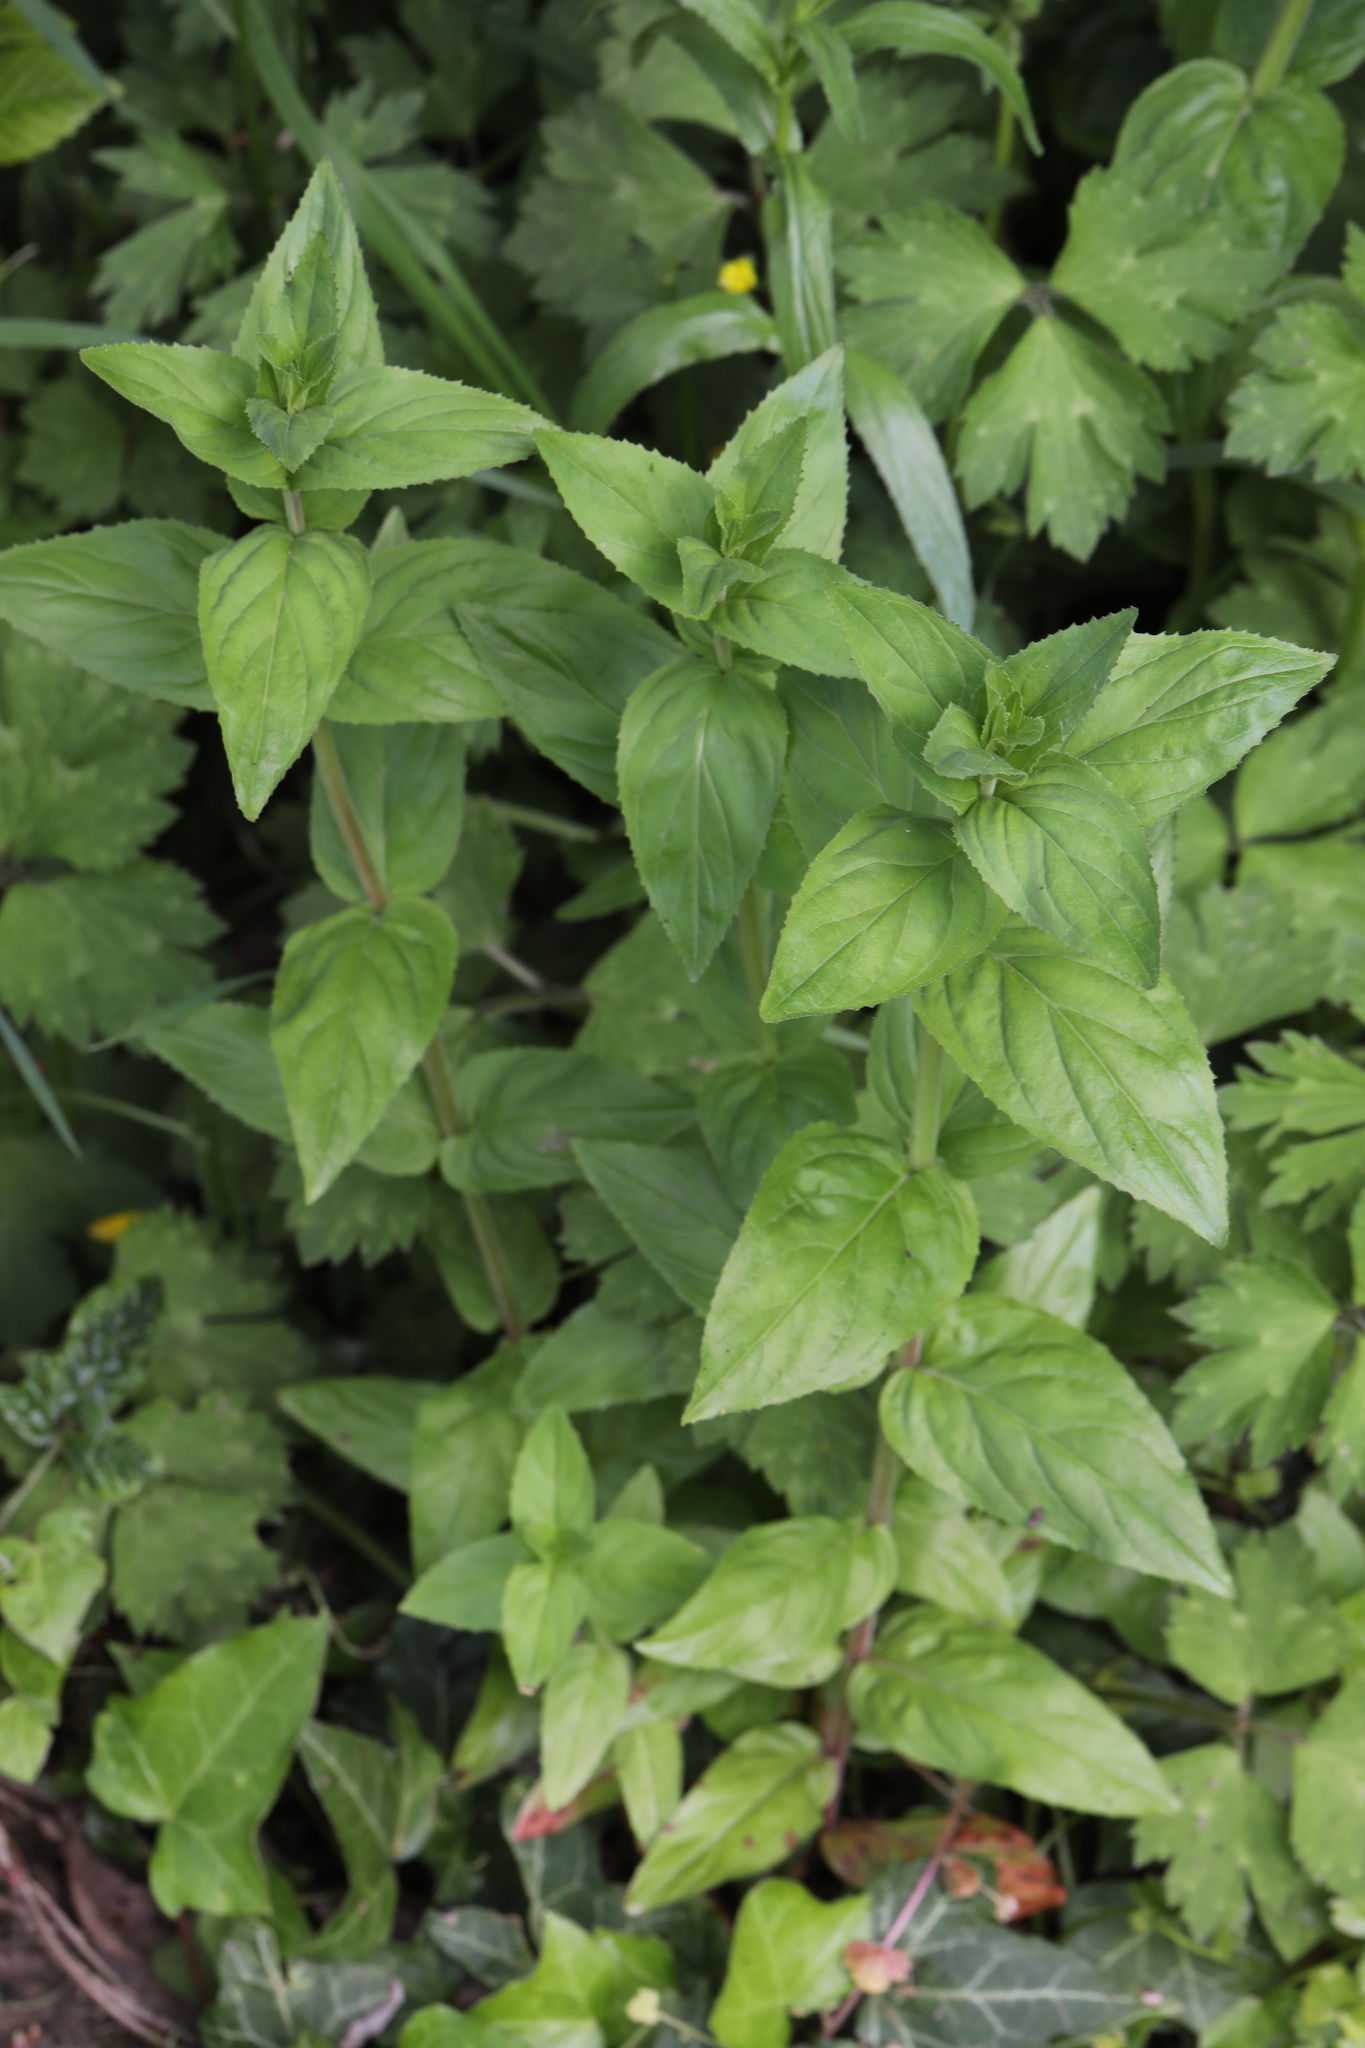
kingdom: Plantae
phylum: Tracheophyta
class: Magnoliopsida
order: Myrtales
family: Onagraceae
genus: Epilobium
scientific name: Epilobium montanum
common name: Broad-leaved willowherb
